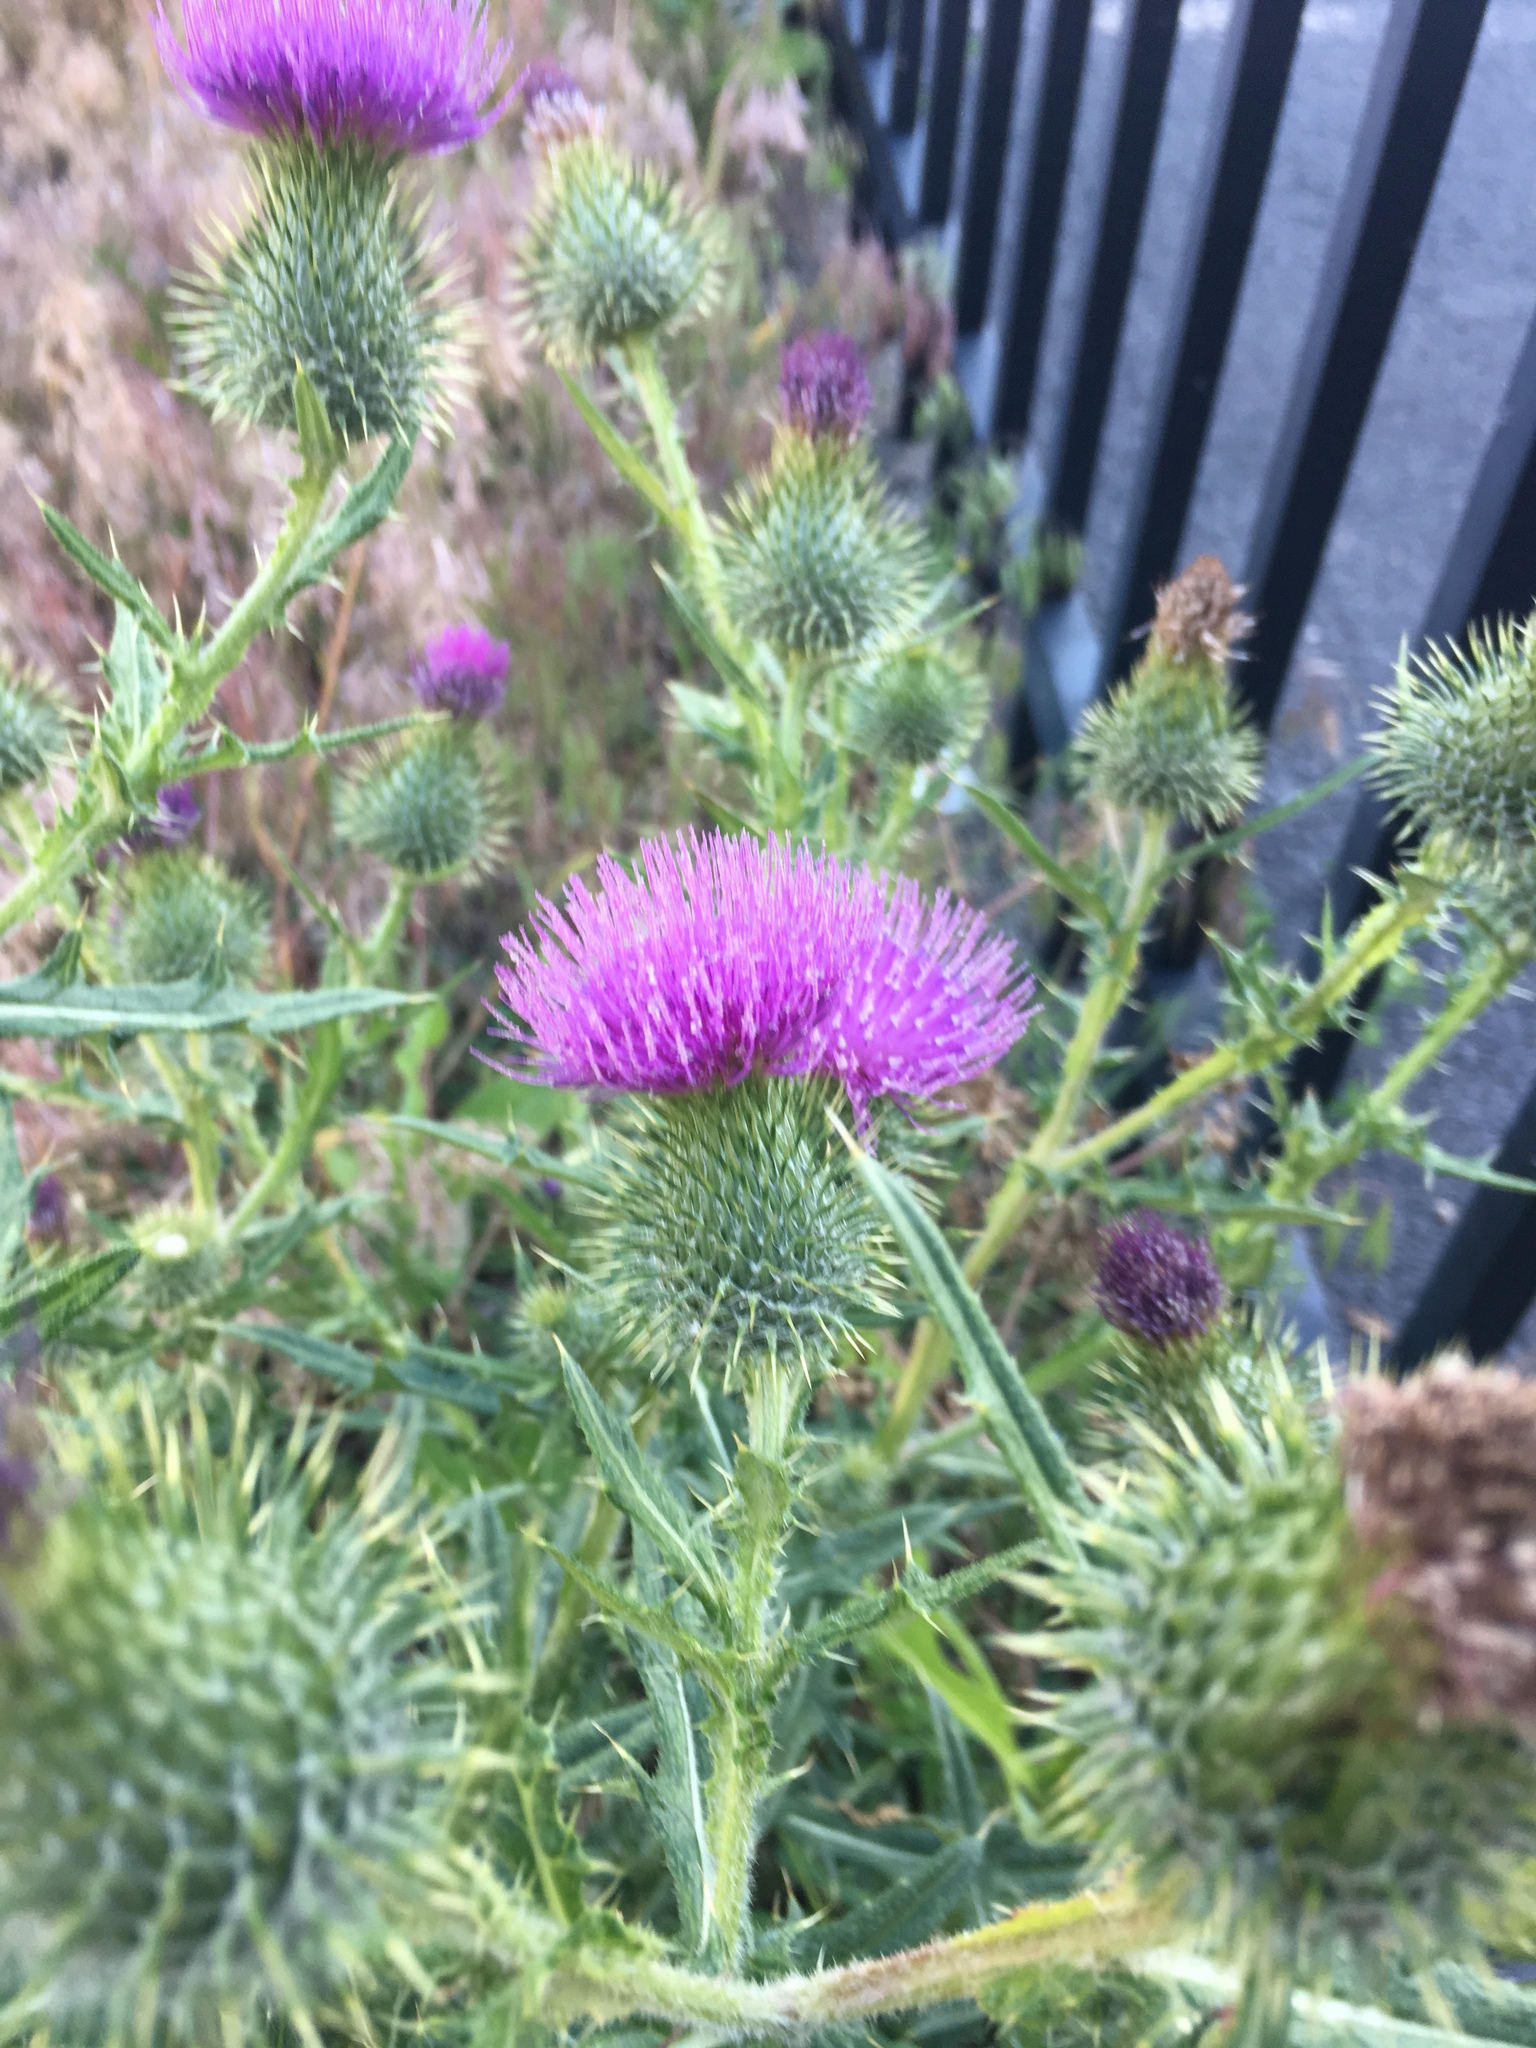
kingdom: Plantae
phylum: Tracheophyta
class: Magnoliopsida
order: Asterales
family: Asteraceae
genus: Cirsium
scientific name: Cirsium vulgare
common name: Bull thistle
